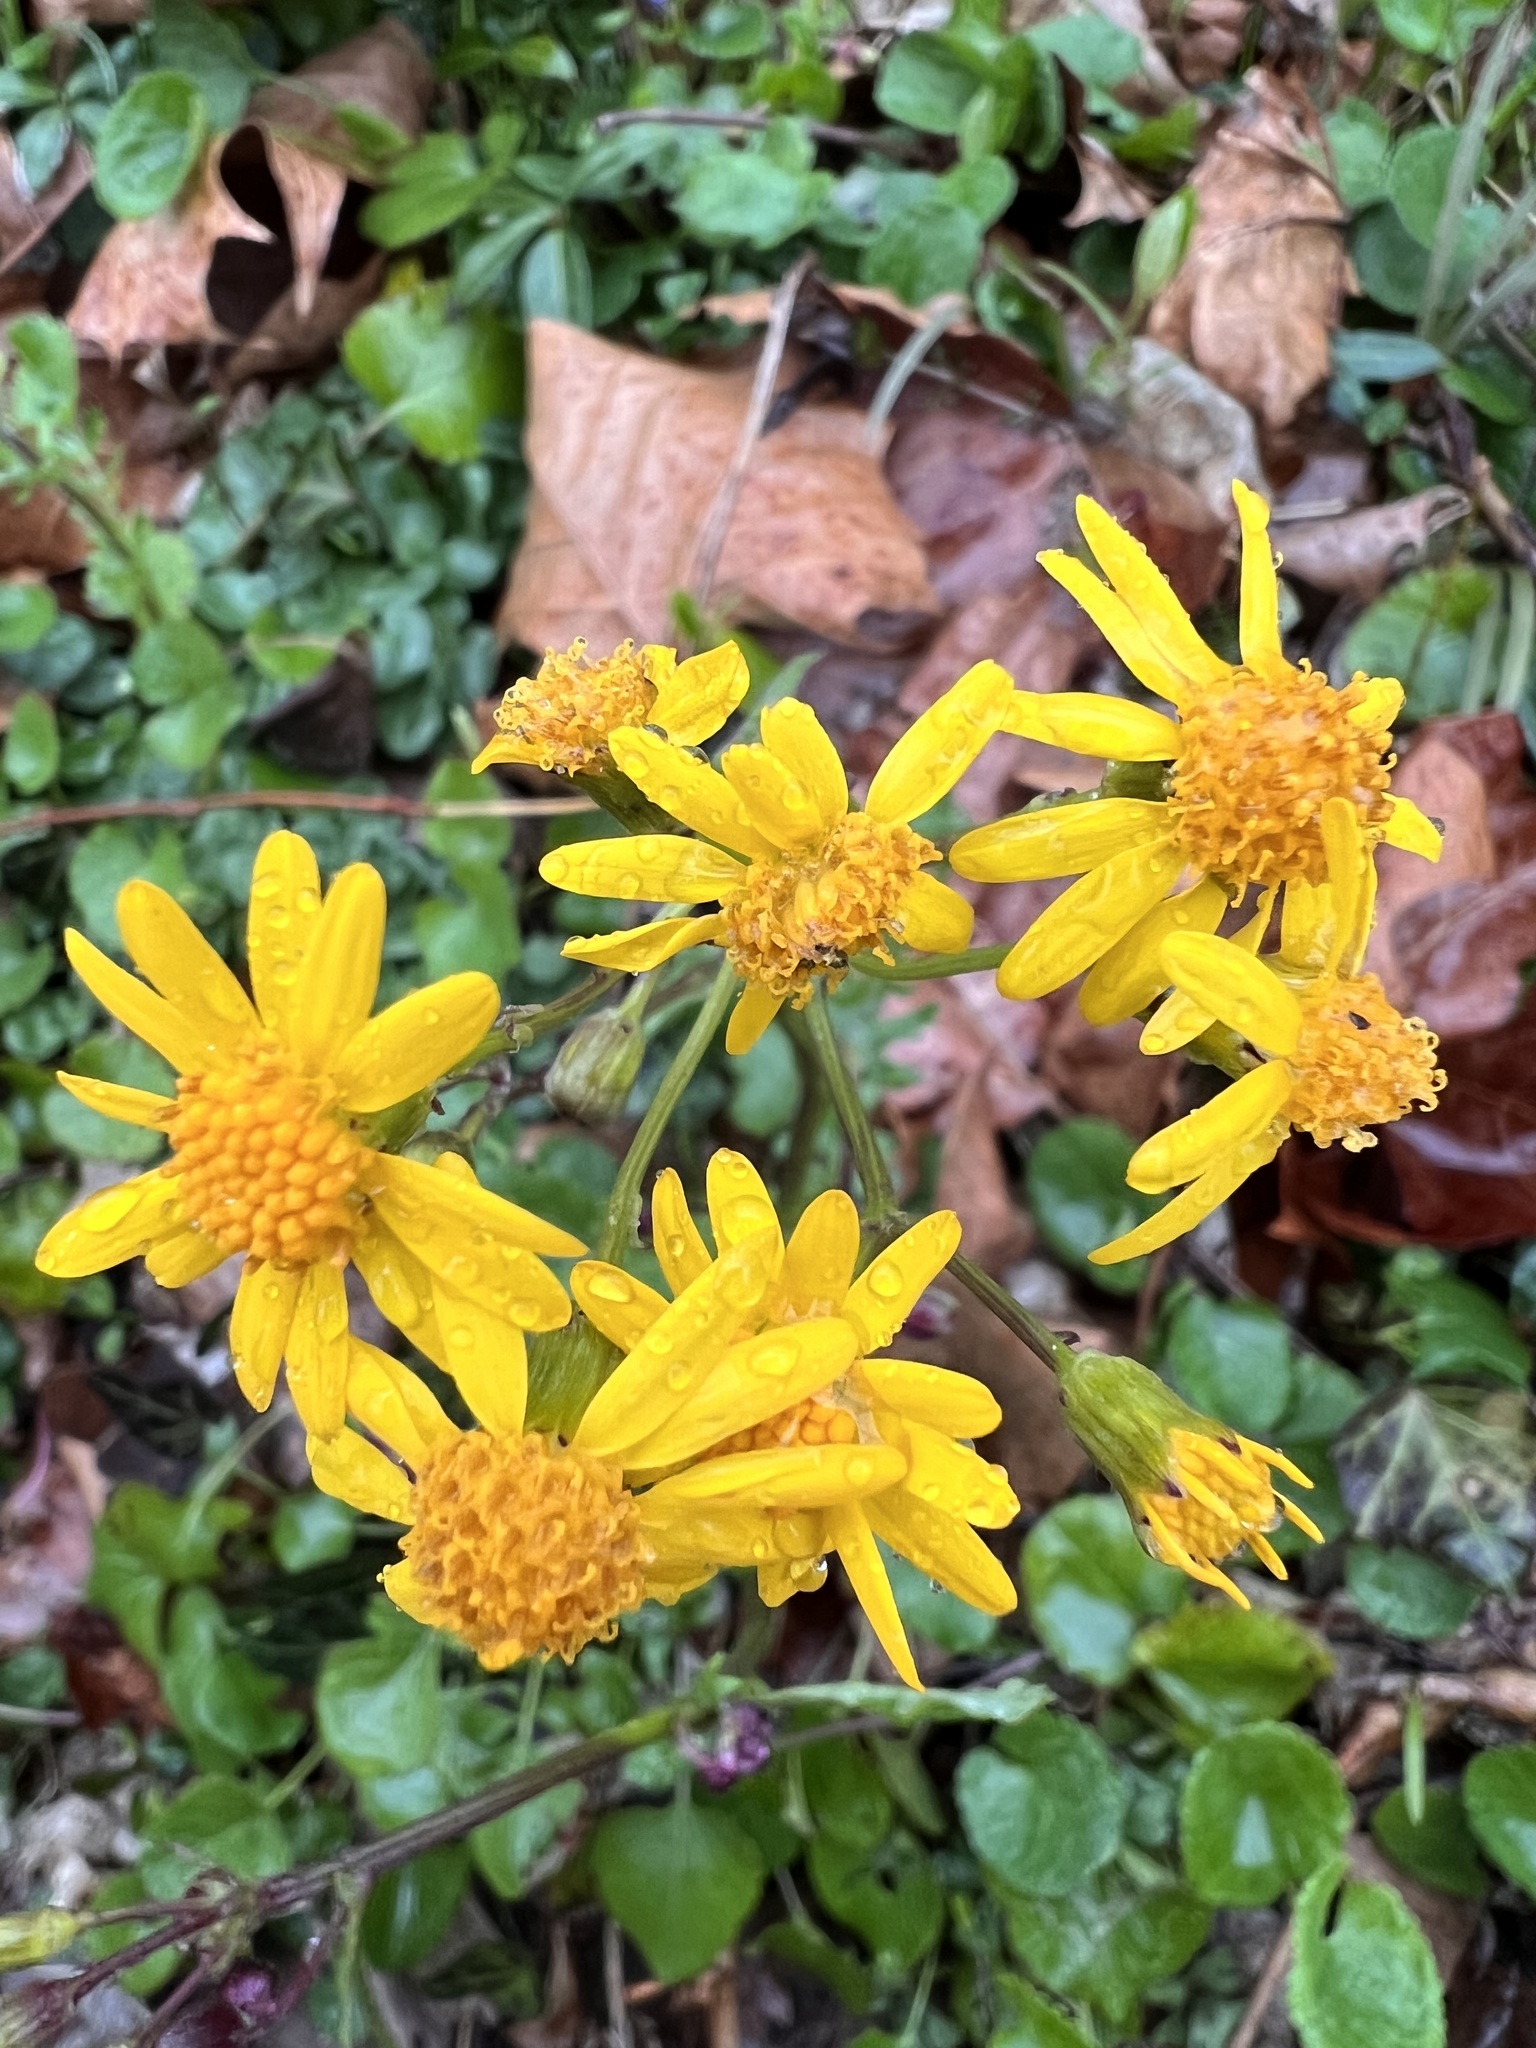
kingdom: Plantae
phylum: Tracheophyta
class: Magnoliopsida
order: Asterales
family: Asteraceae
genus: Packera
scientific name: Packera aurea
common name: Golden groundsel
